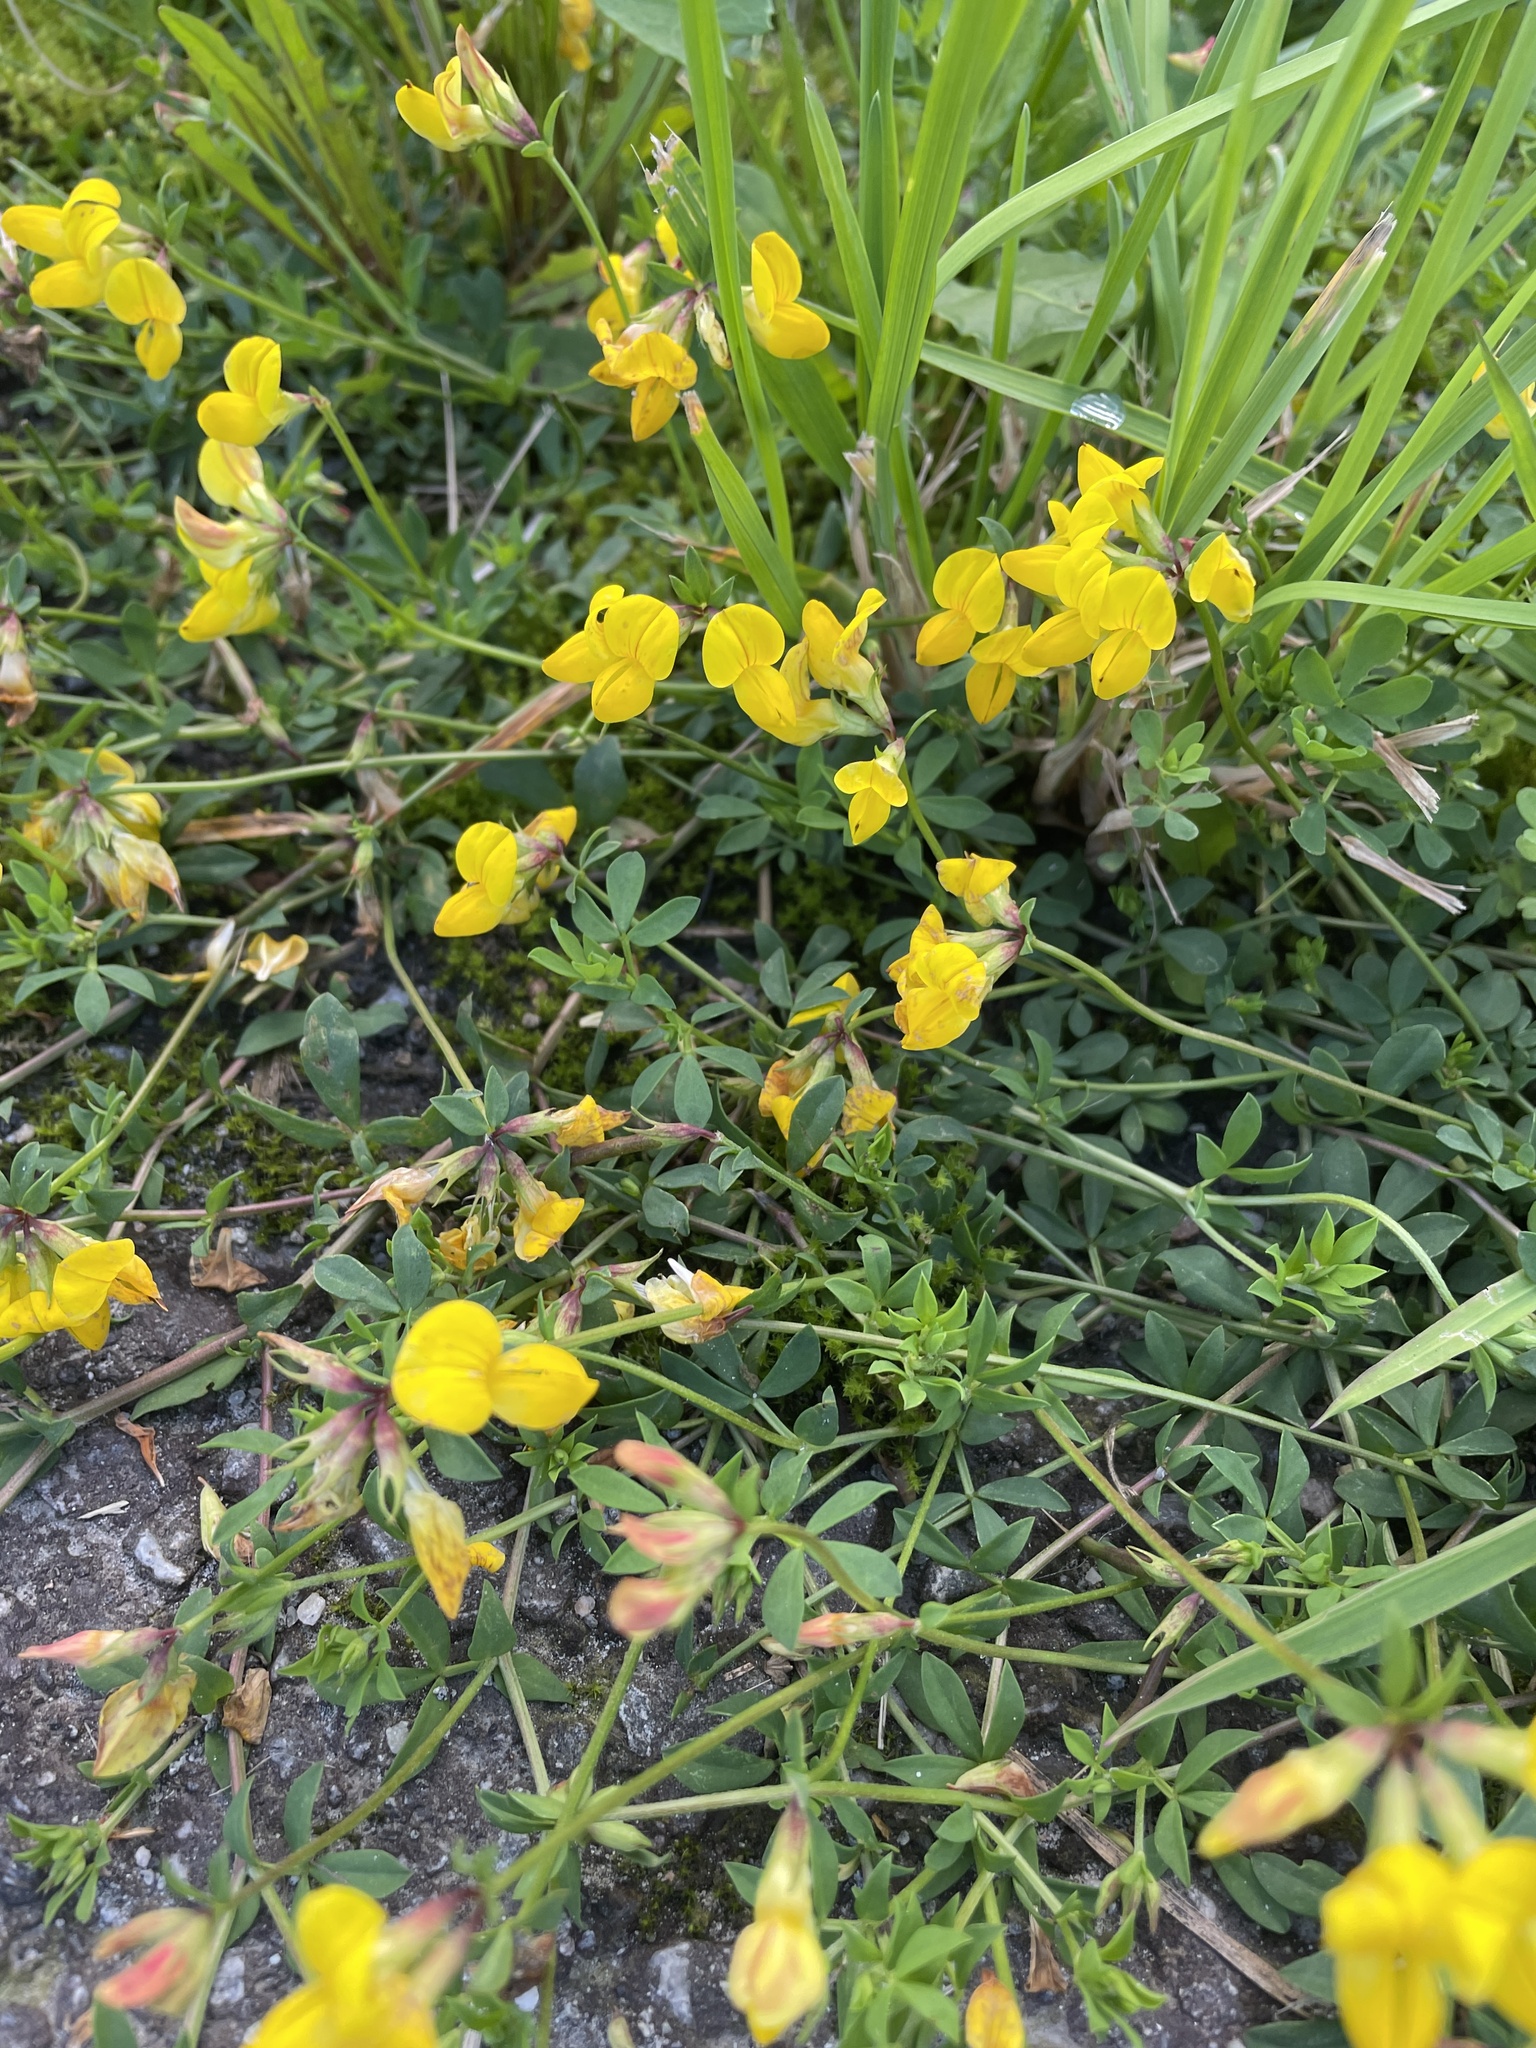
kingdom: Plantae
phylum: Tracheophyta
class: Magnoliopsida
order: Fabales
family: Fabaceae
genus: Lotus
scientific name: Lotus corniculatus
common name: Common bird's-foot-trefoil
